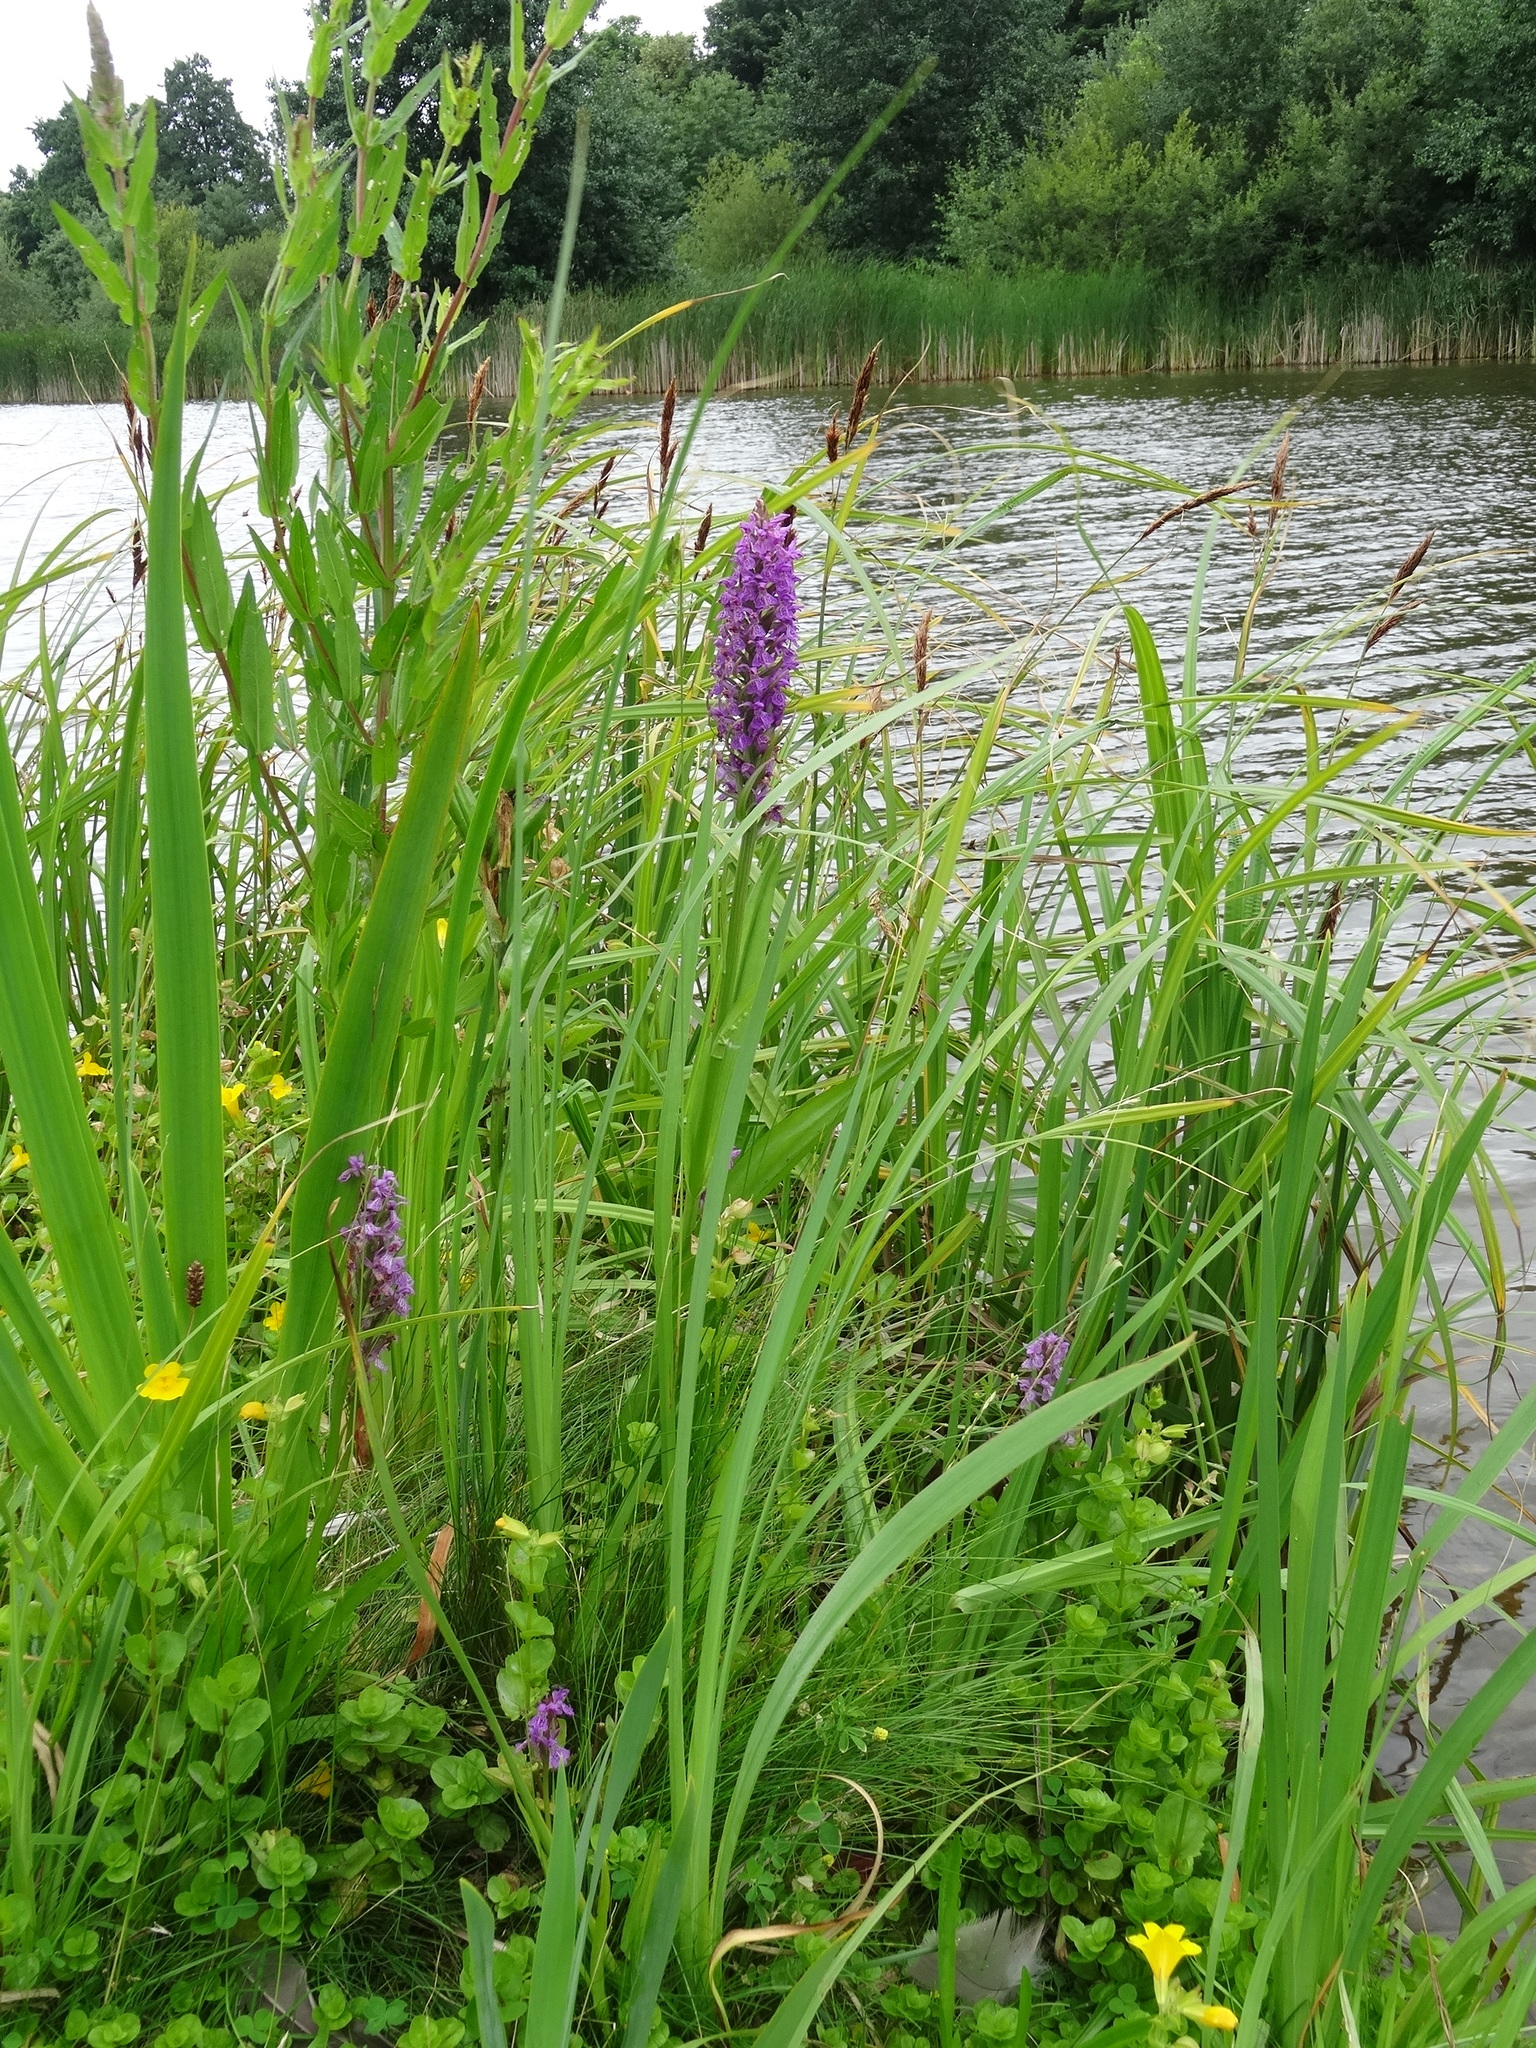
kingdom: Plantae
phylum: Tracheophyta
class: Liliopsida
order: Asparagales
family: Orchidaceae
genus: Dactylorhiza
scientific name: Dactylorhiza majalis
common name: Marsh orchid
